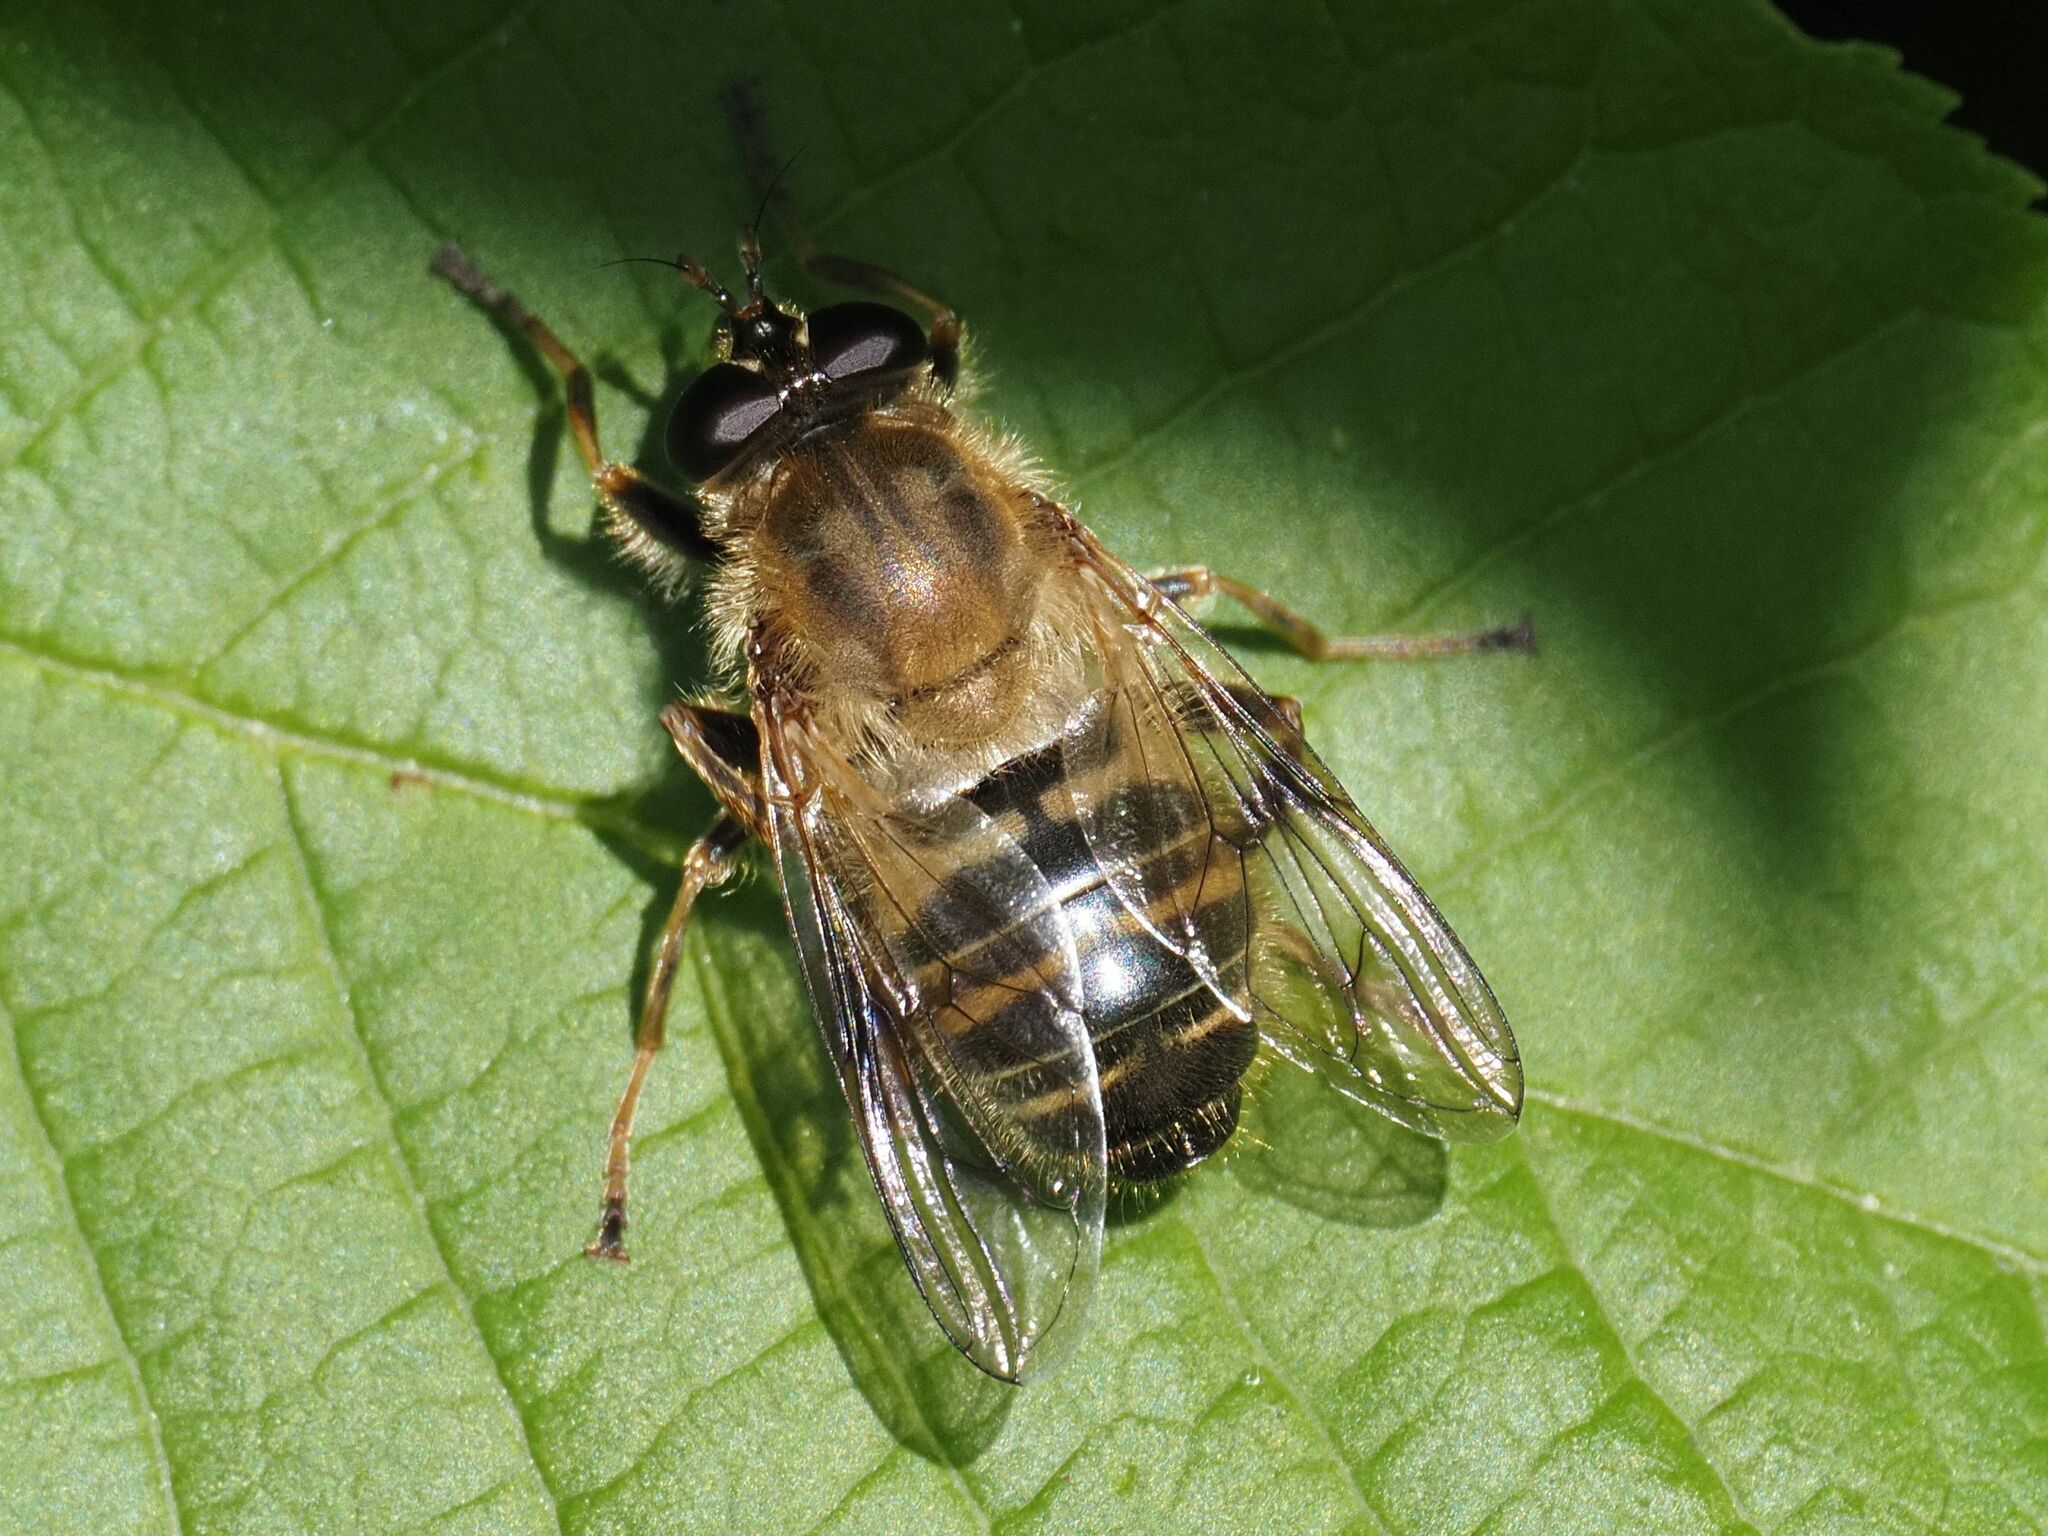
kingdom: Animalia
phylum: Arthropoda
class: Insecta
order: Diptera
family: Syrphidae
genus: Criorhina
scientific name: Criorhina asilica
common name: Pale-banded bear hoverfly
